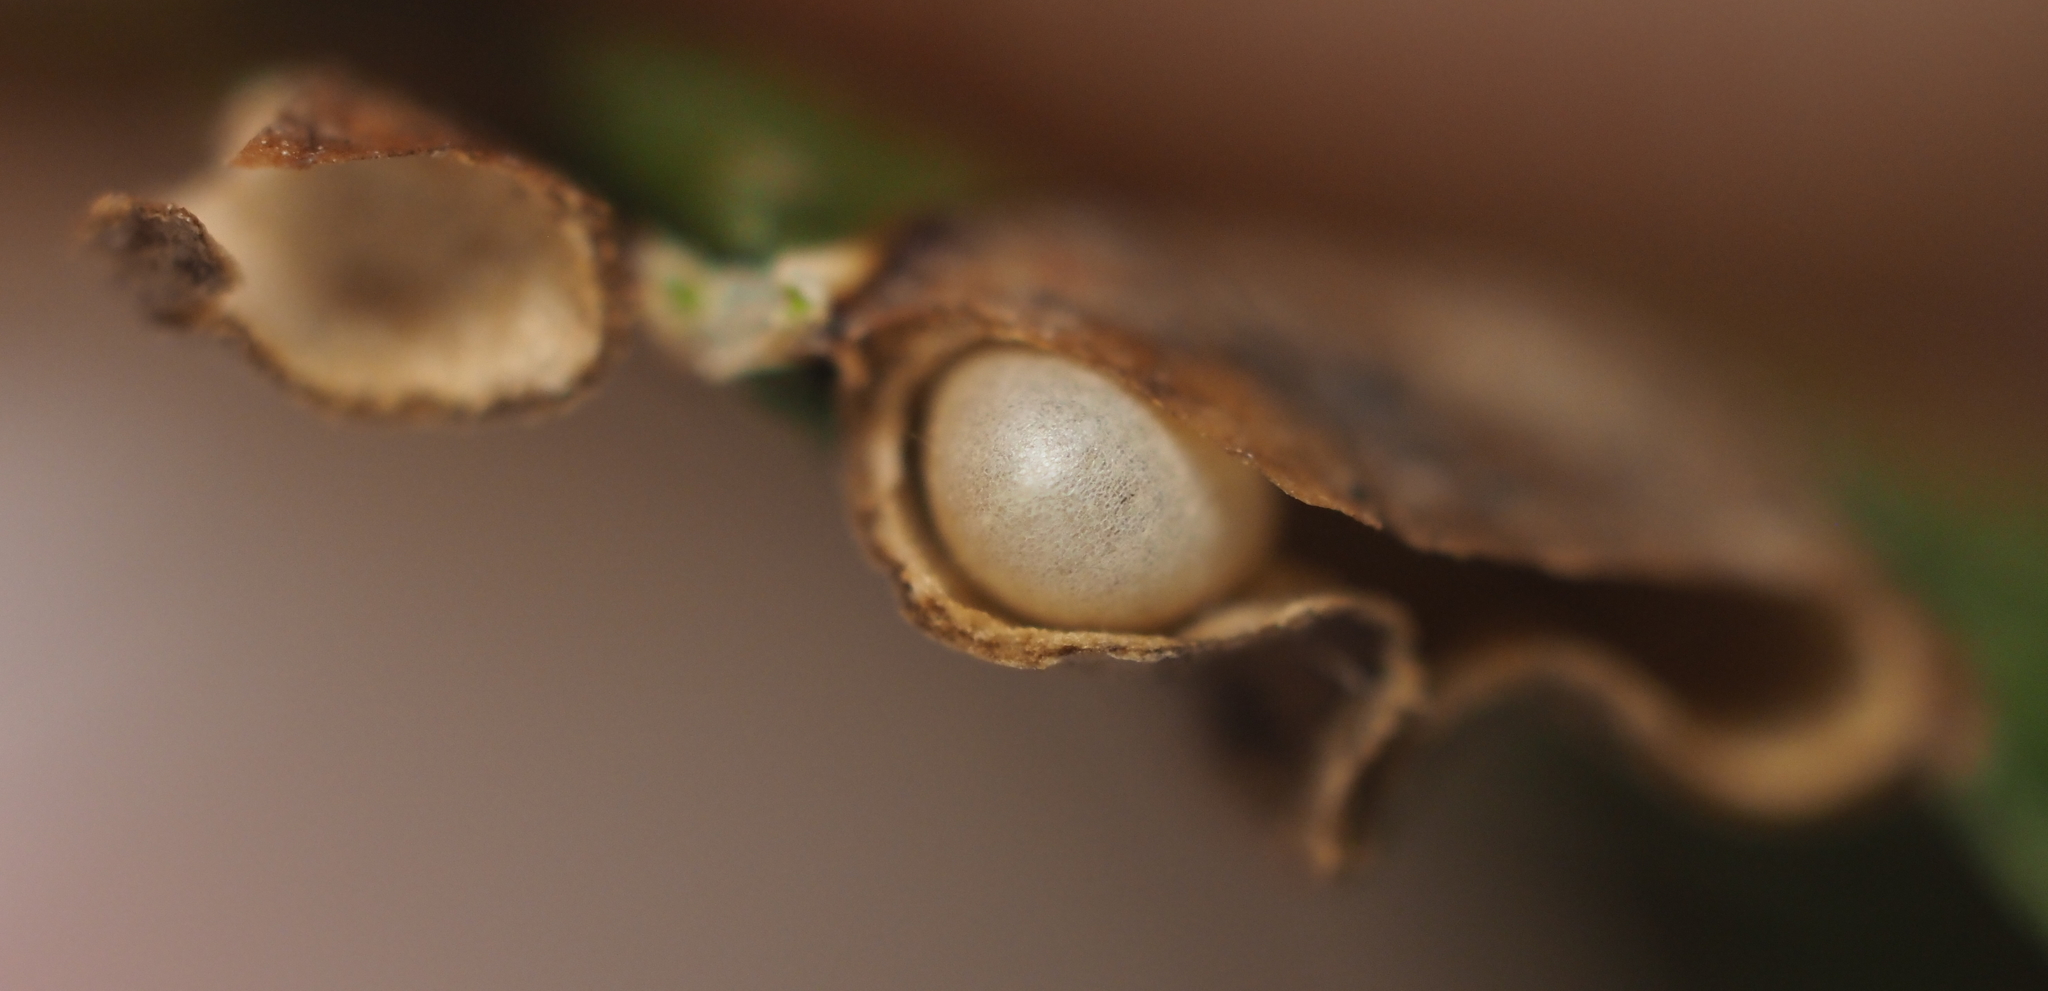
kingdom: Animalia
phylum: Arthropoda
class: Insecta
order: Hymenoptera
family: Cynipidae
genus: Dryocosmus
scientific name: Dryocosmus
